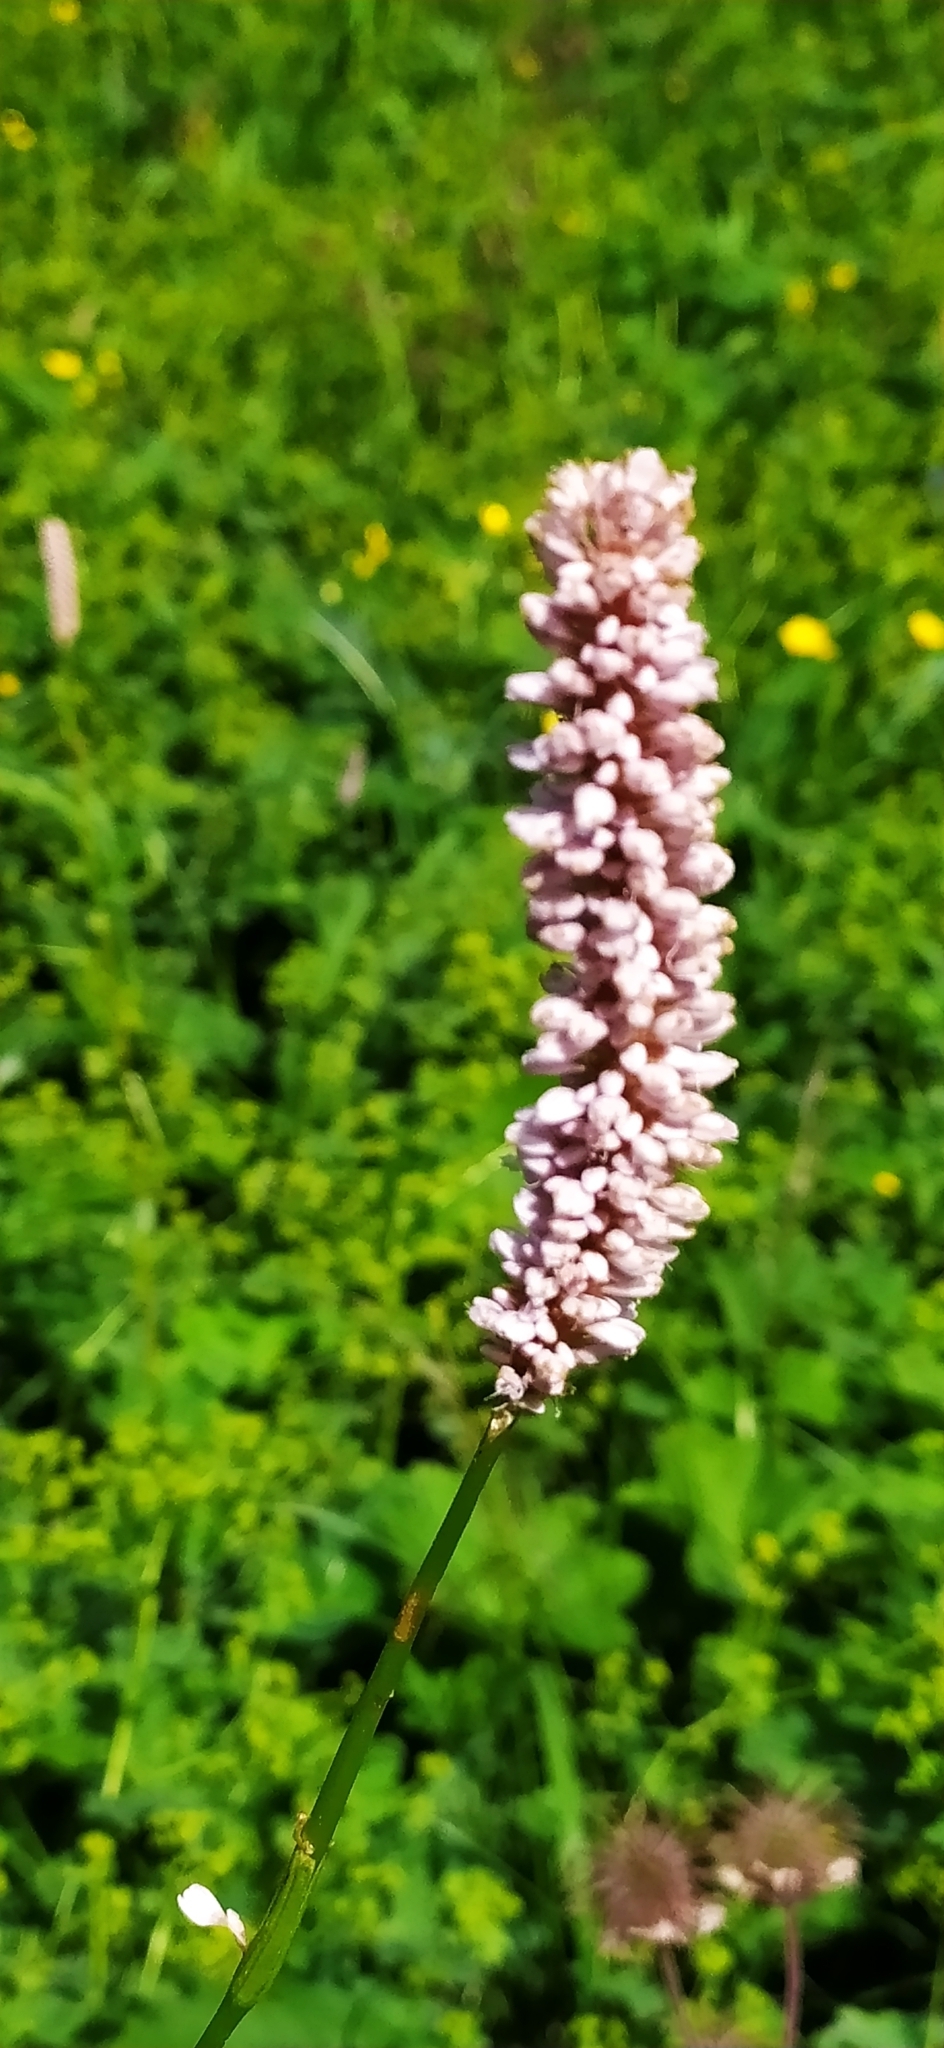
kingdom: Plantae
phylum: Tracheophyta
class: Magnoliopsida
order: Caryophyllales
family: Polygonaceae
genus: Bistorta
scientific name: Bistorta officinalis
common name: Common bistort
